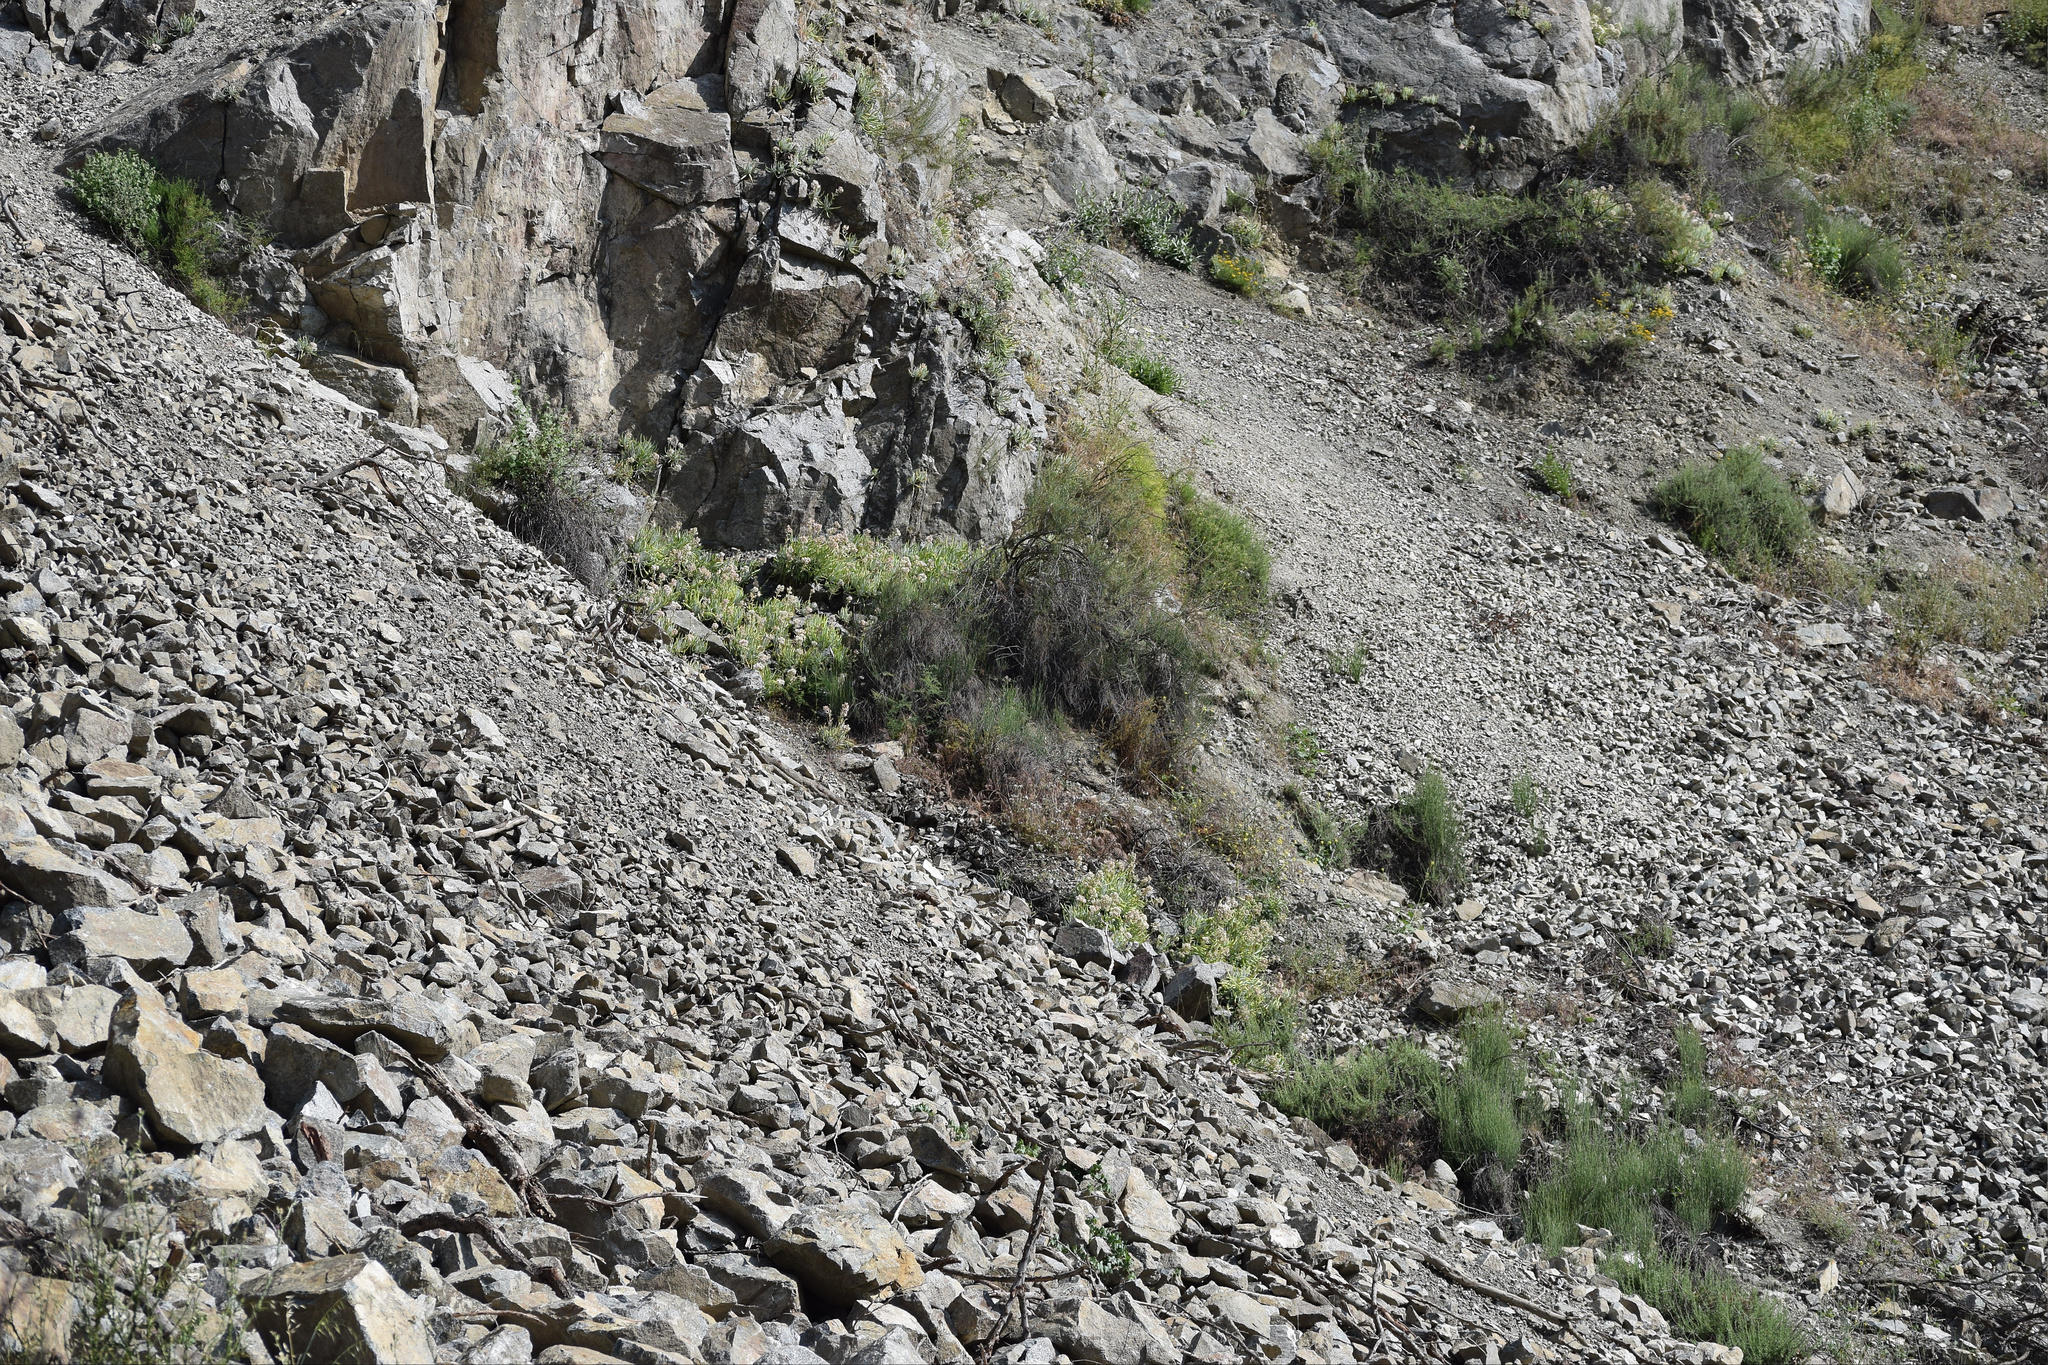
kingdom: Plantae
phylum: Tracheophyta
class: Magnoliopsida
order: Saxifragales
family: Crassulaceae
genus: Dudleya
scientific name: Dudleya densiflora
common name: San gabriel mountains dudleya
